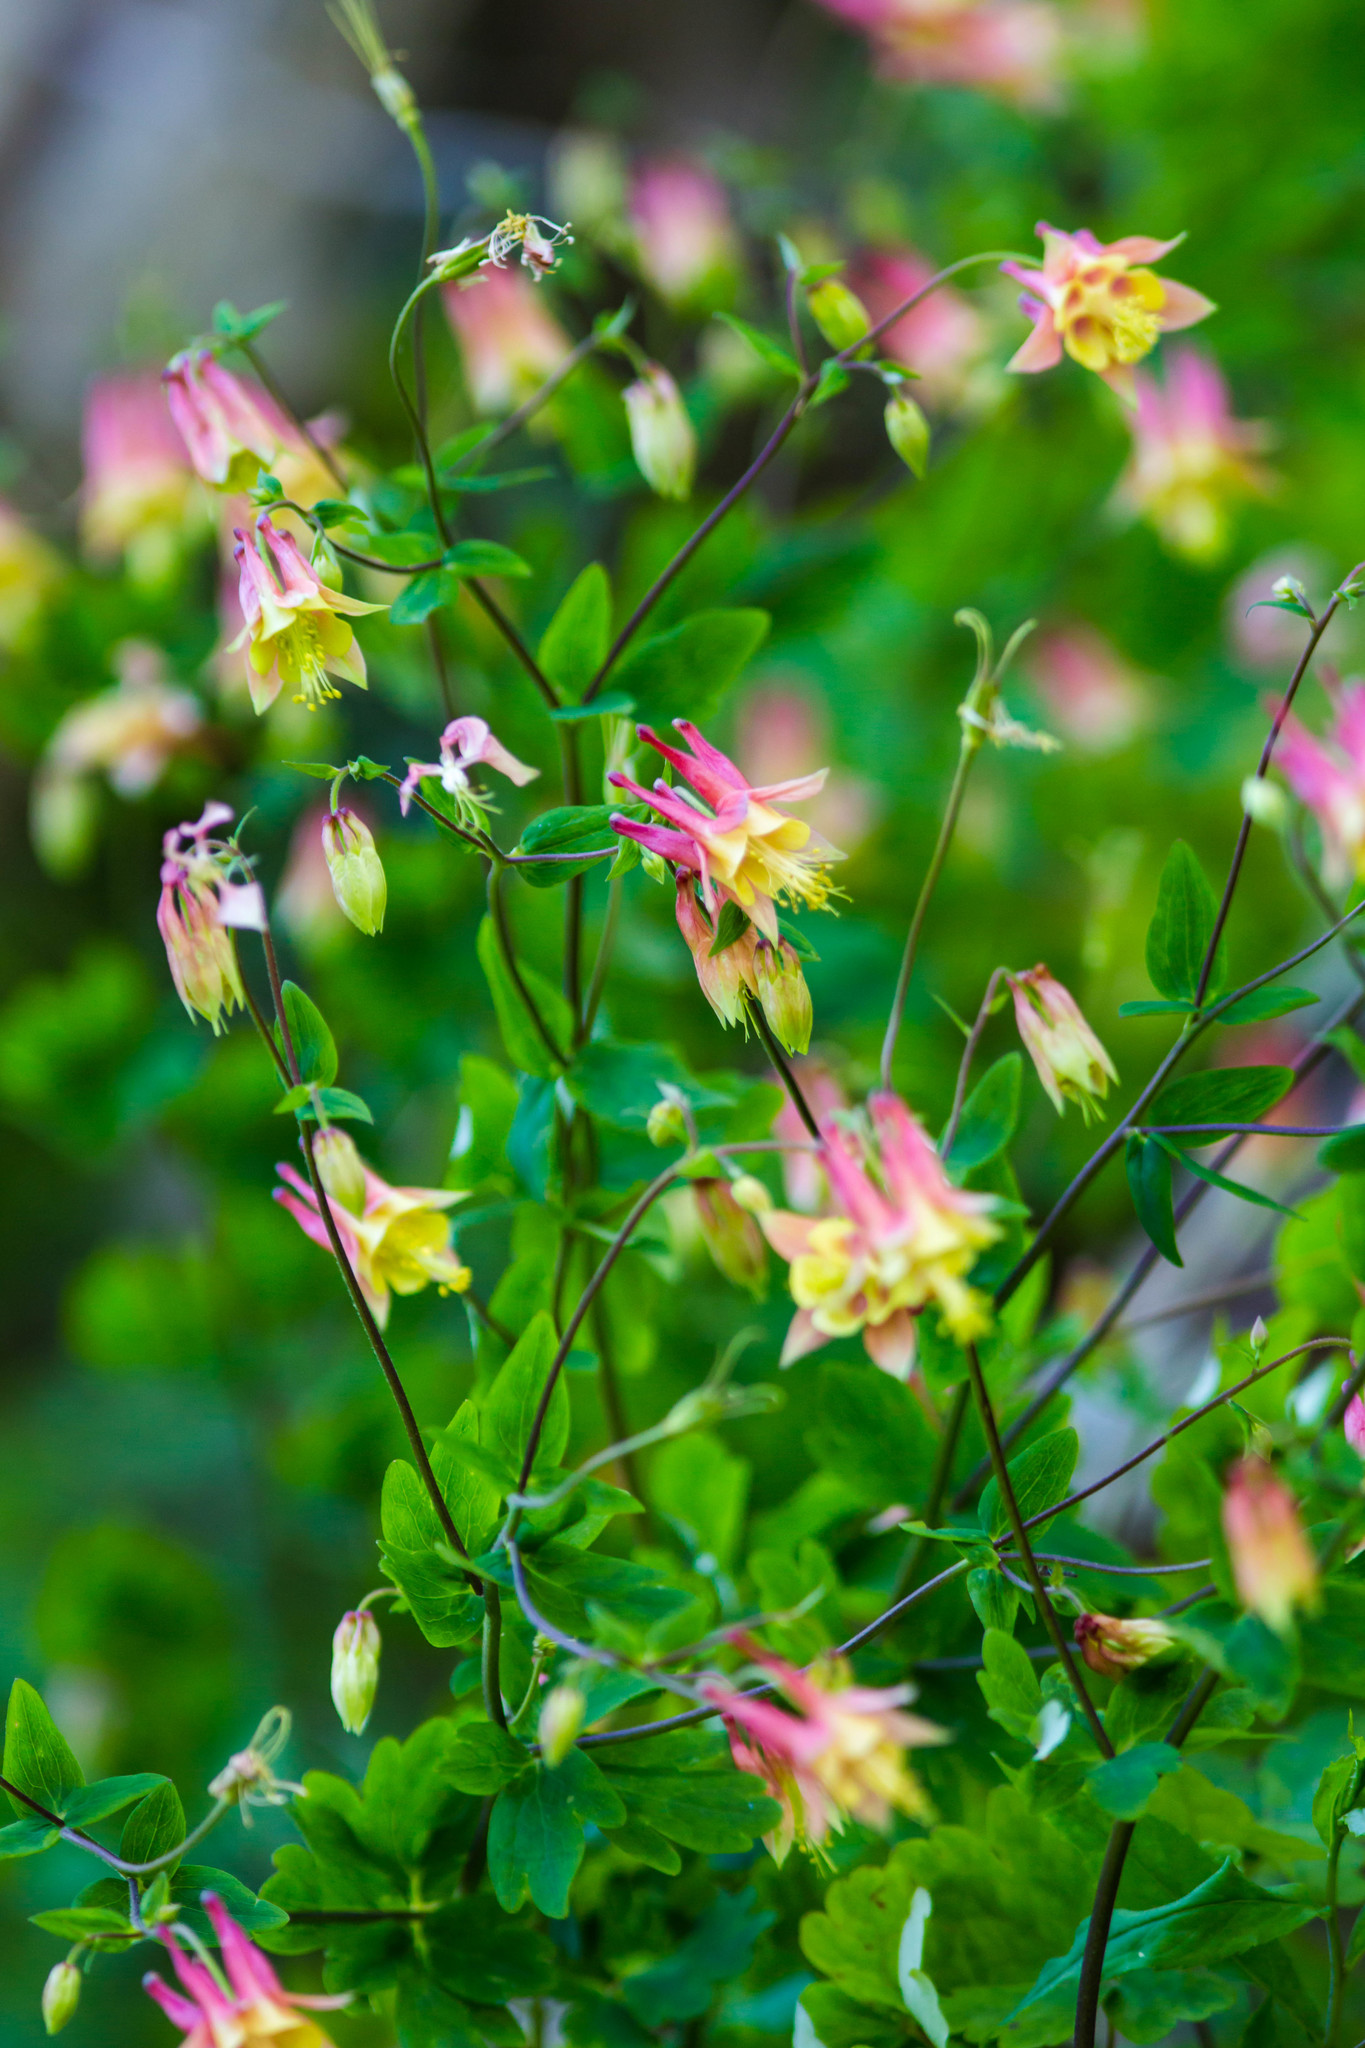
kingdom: Plantae
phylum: Tracheophyta
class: Magnoliopsida
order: Ranunculales
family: Ranunculaceae
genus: Aquilegia
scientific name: Aquilegia canadensis
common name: American columbine
